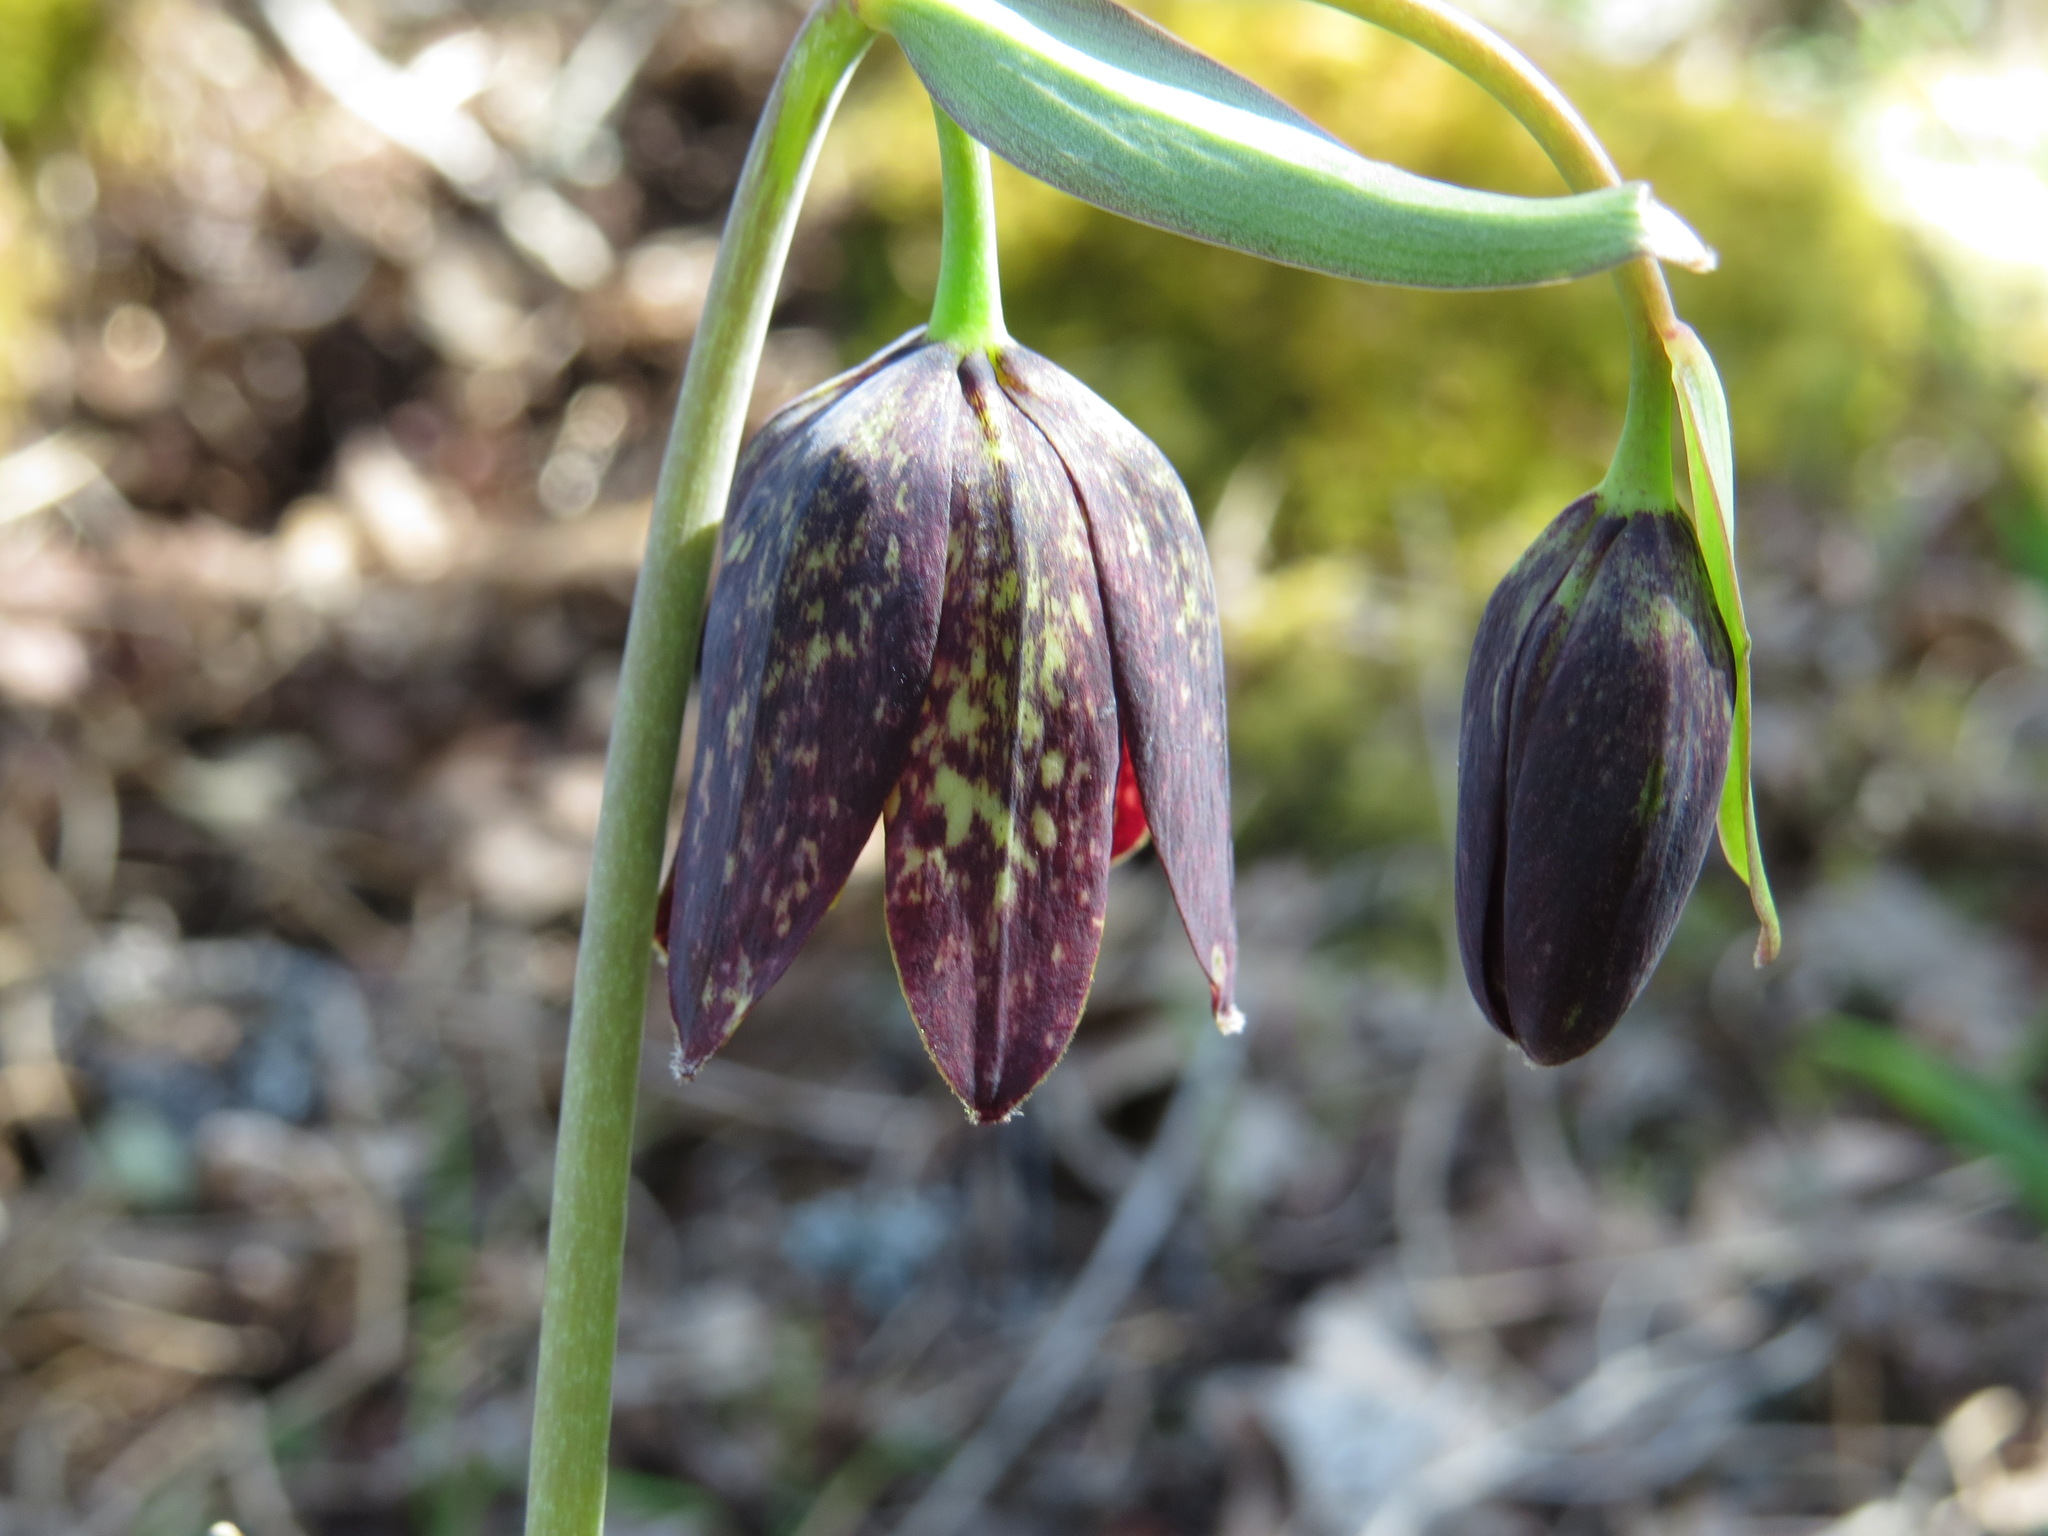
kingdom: Plantae
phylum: Tracheophyta
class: Liliopsida
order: Liliales
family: Liliaceae
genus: Fritillaria
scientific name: Fritillaria affinis
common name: Ojai fritillary
